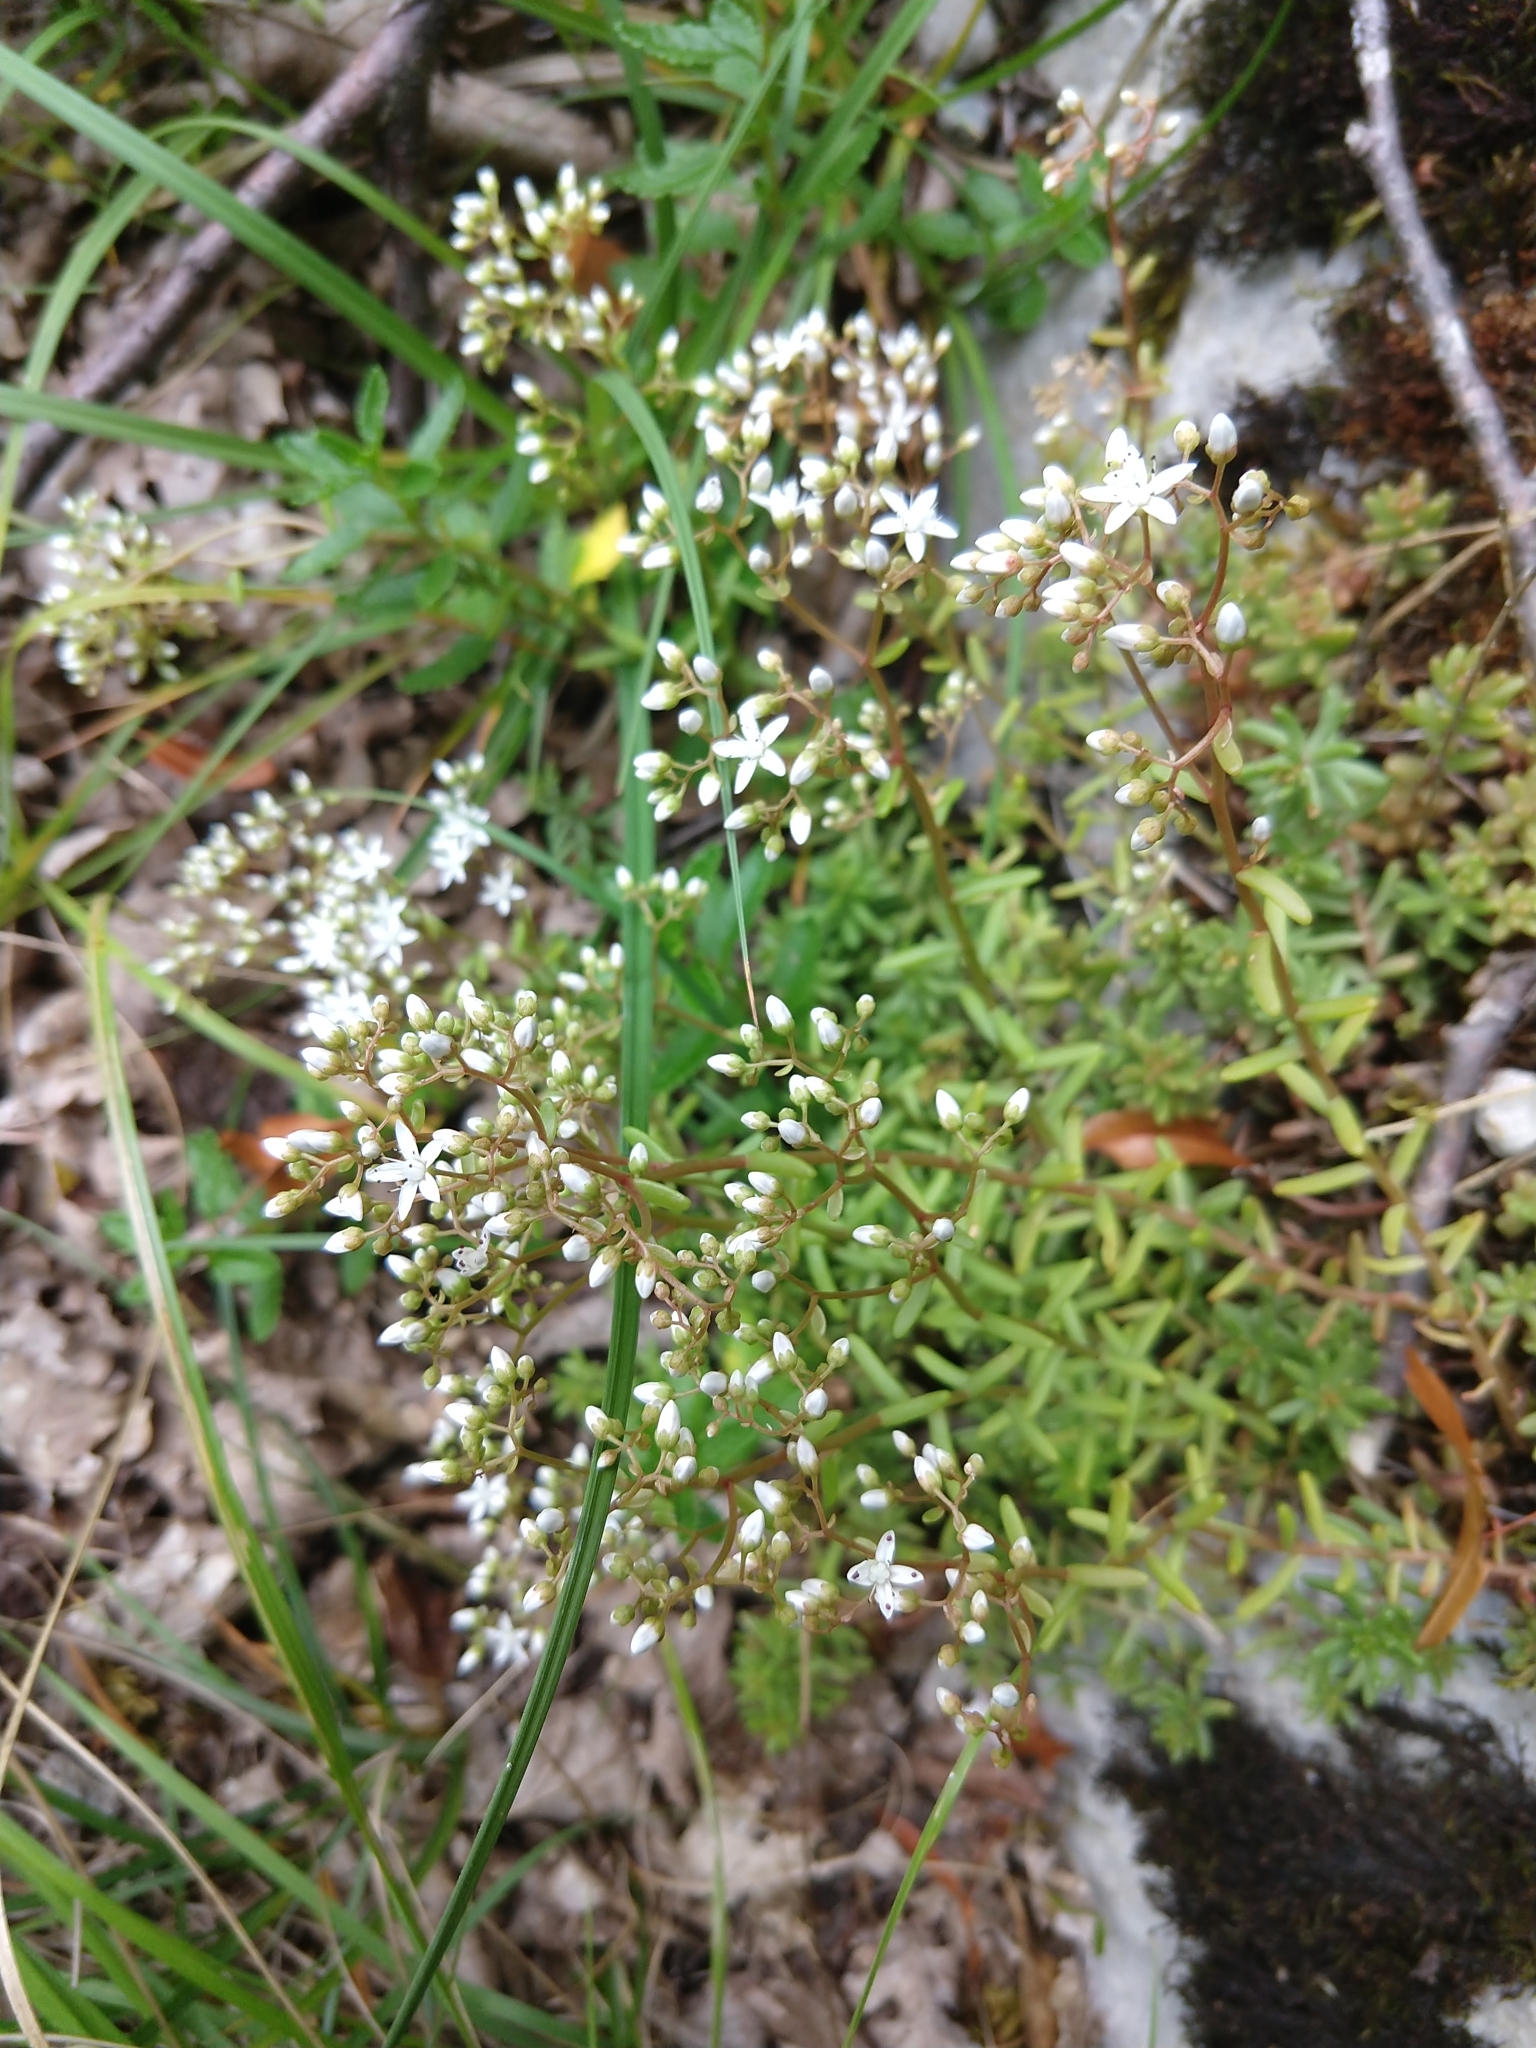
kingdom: Plantae
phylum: Tracheophyta
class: Magnoliopsida
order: Saxifragales
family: Crassulaceae
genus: Sedum
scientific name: Sedum album
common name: White stonecrop
